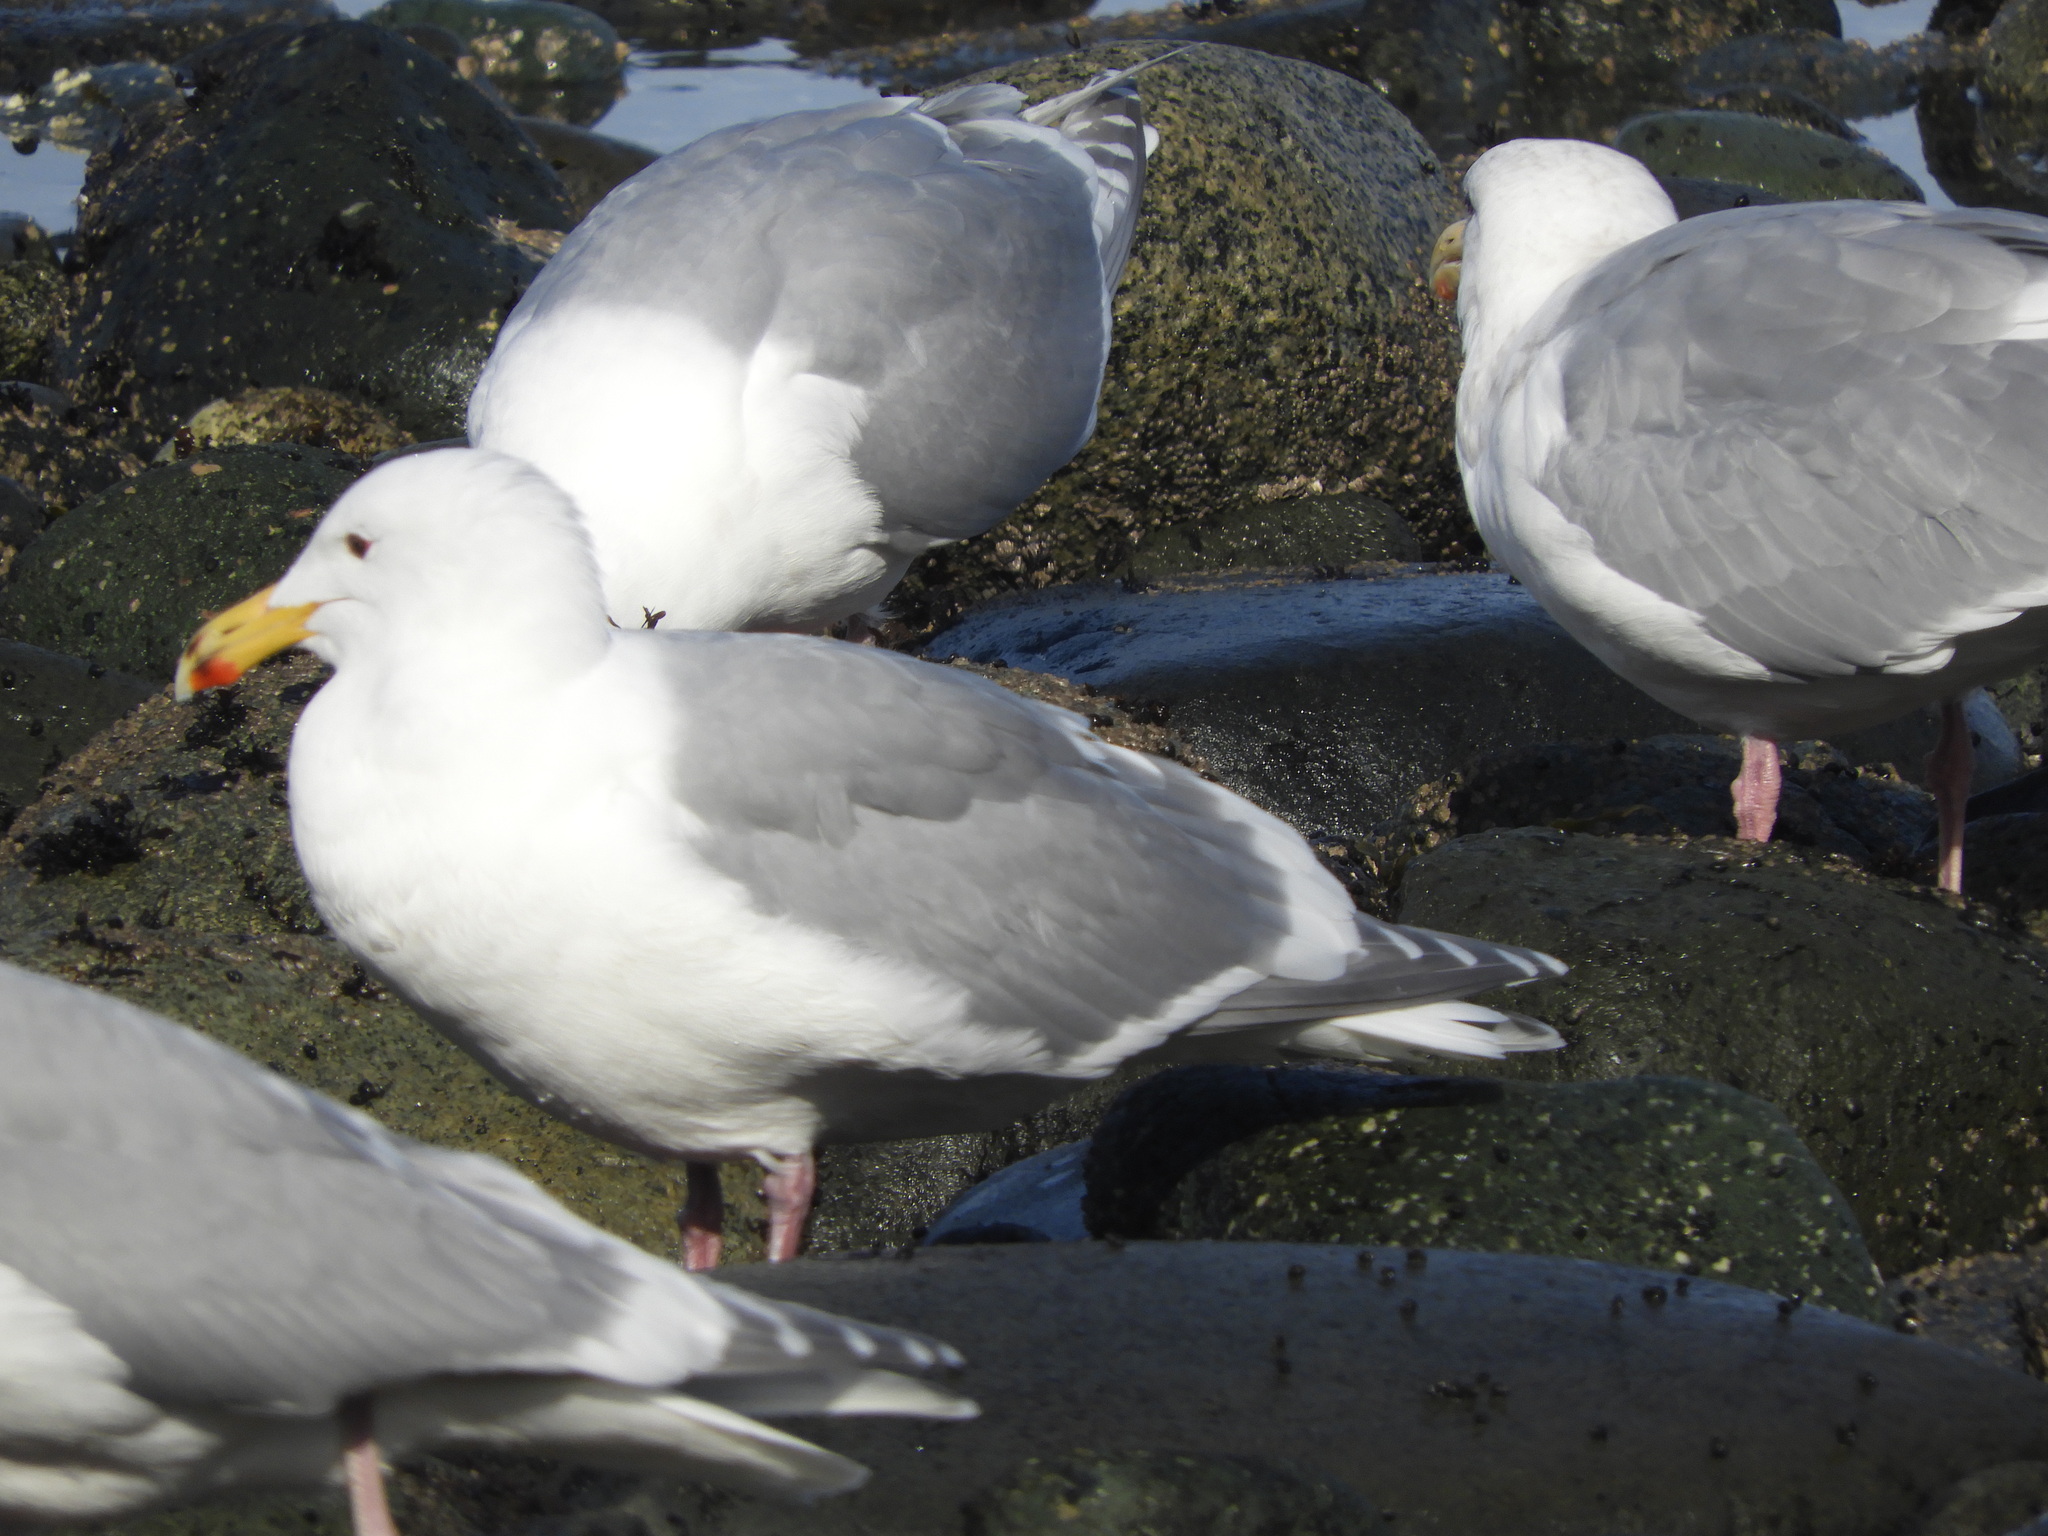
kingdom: Animalia
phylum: Chordata
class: Aves
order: Charadriiformes
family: Laridae
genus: Larus
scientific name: Larus
